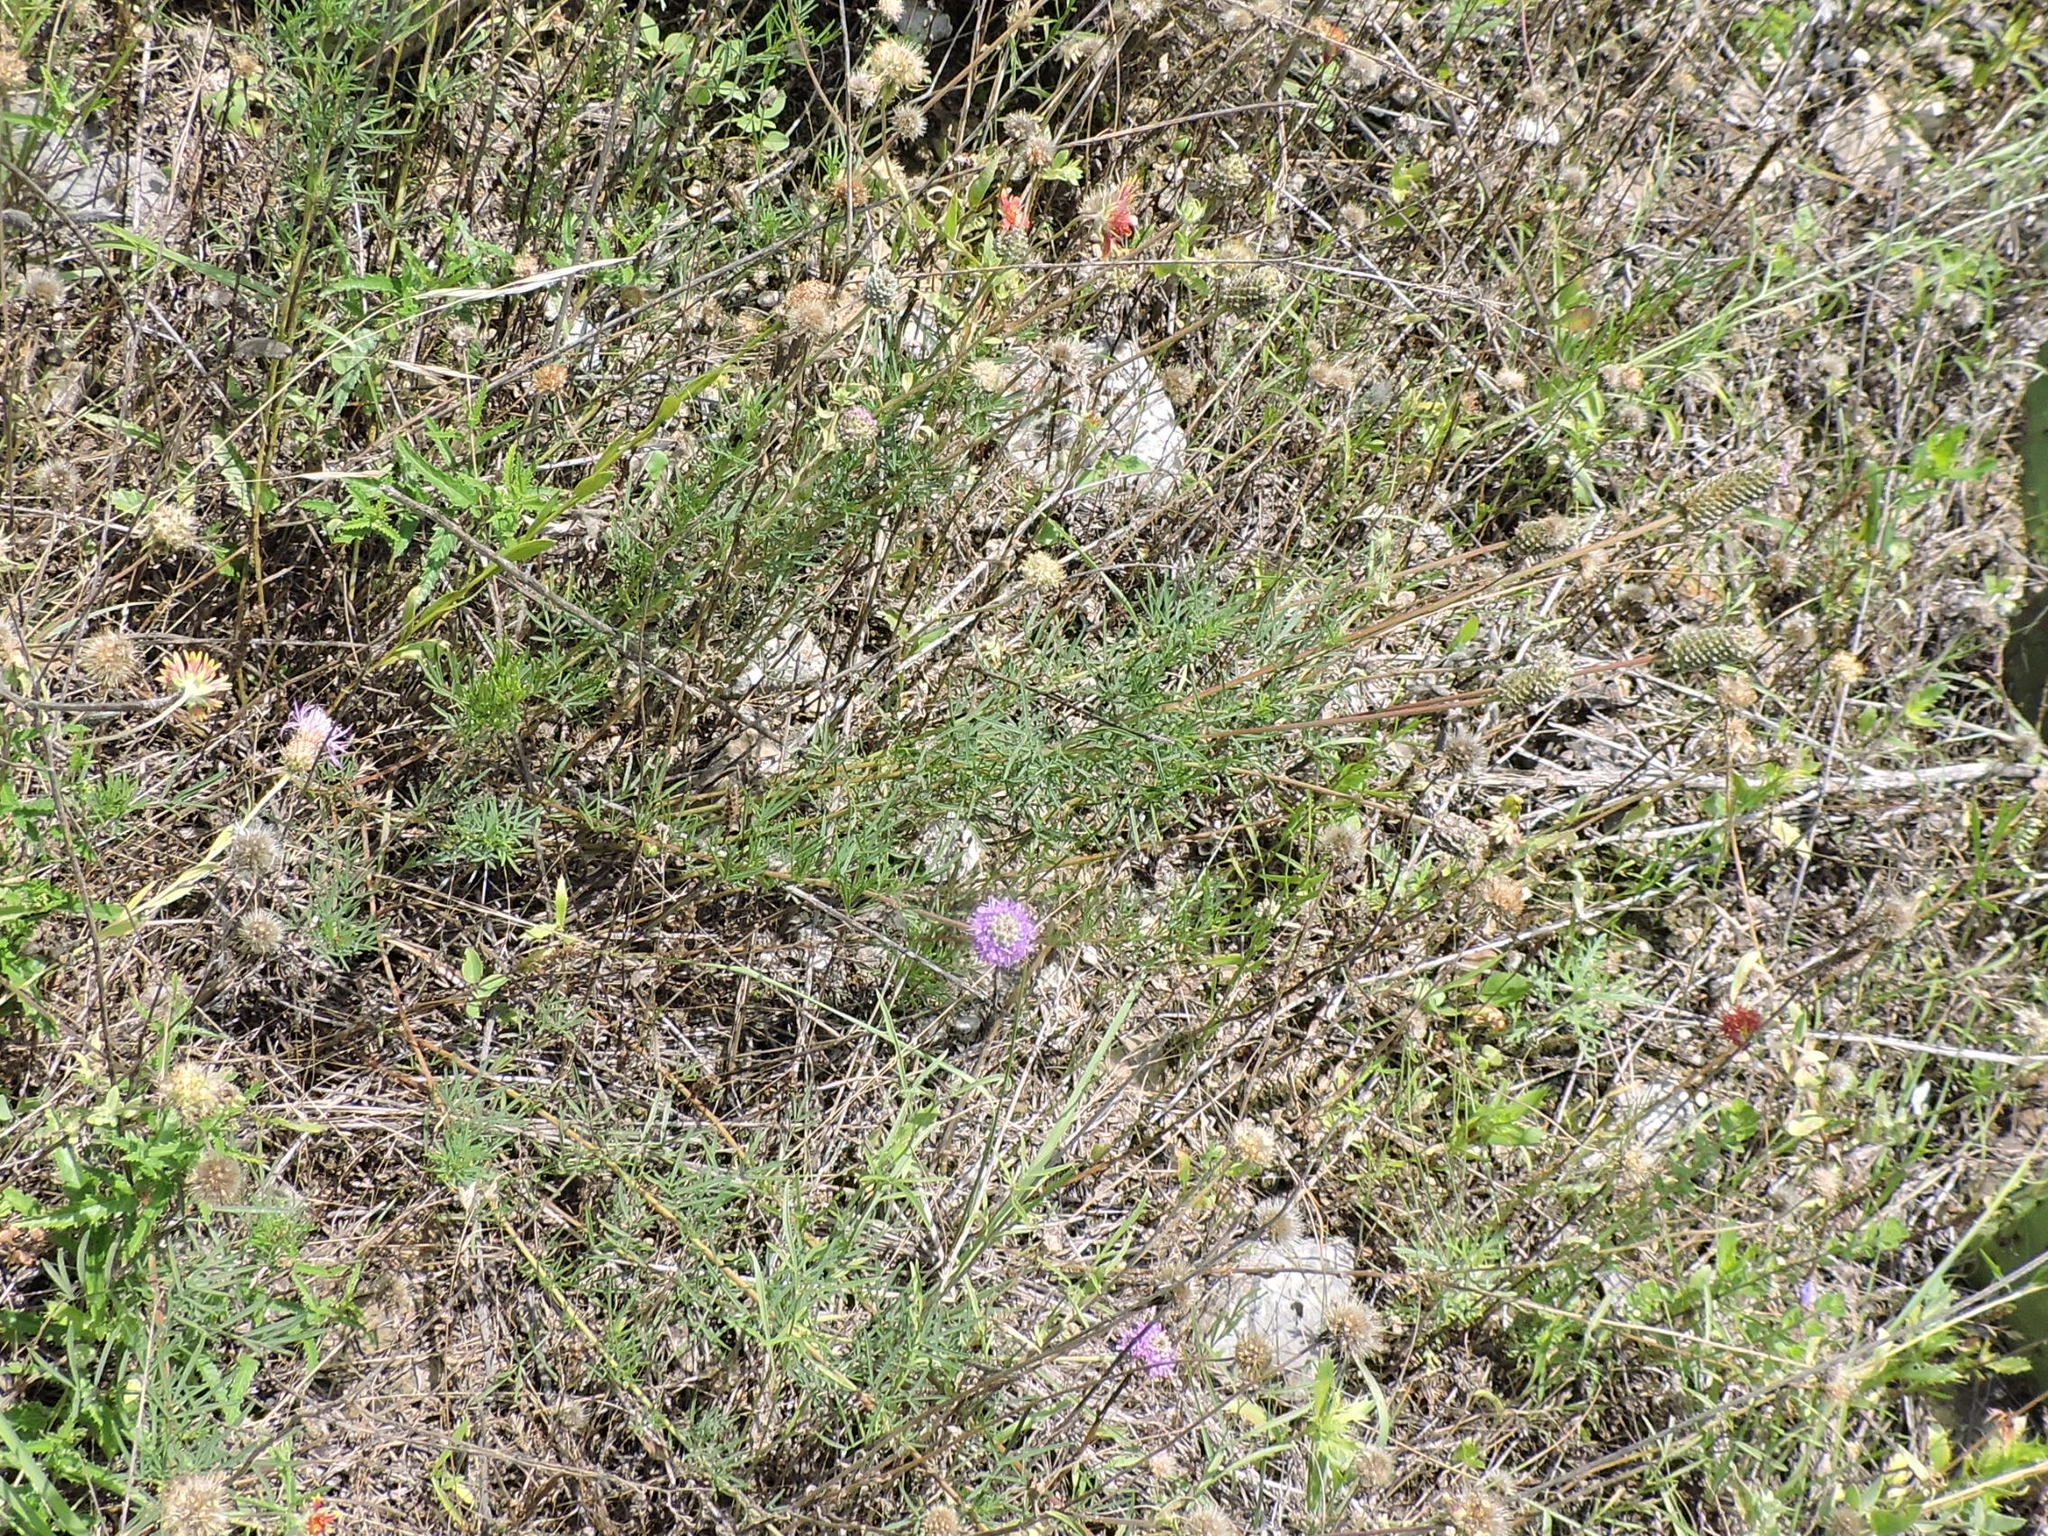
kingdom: Plantae
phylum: Tracheophyta
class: Magnoliopsida
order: Fabales
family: Fabaceae
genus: Dalea
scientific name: Dalea compacta
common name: Compact prairie-clover
